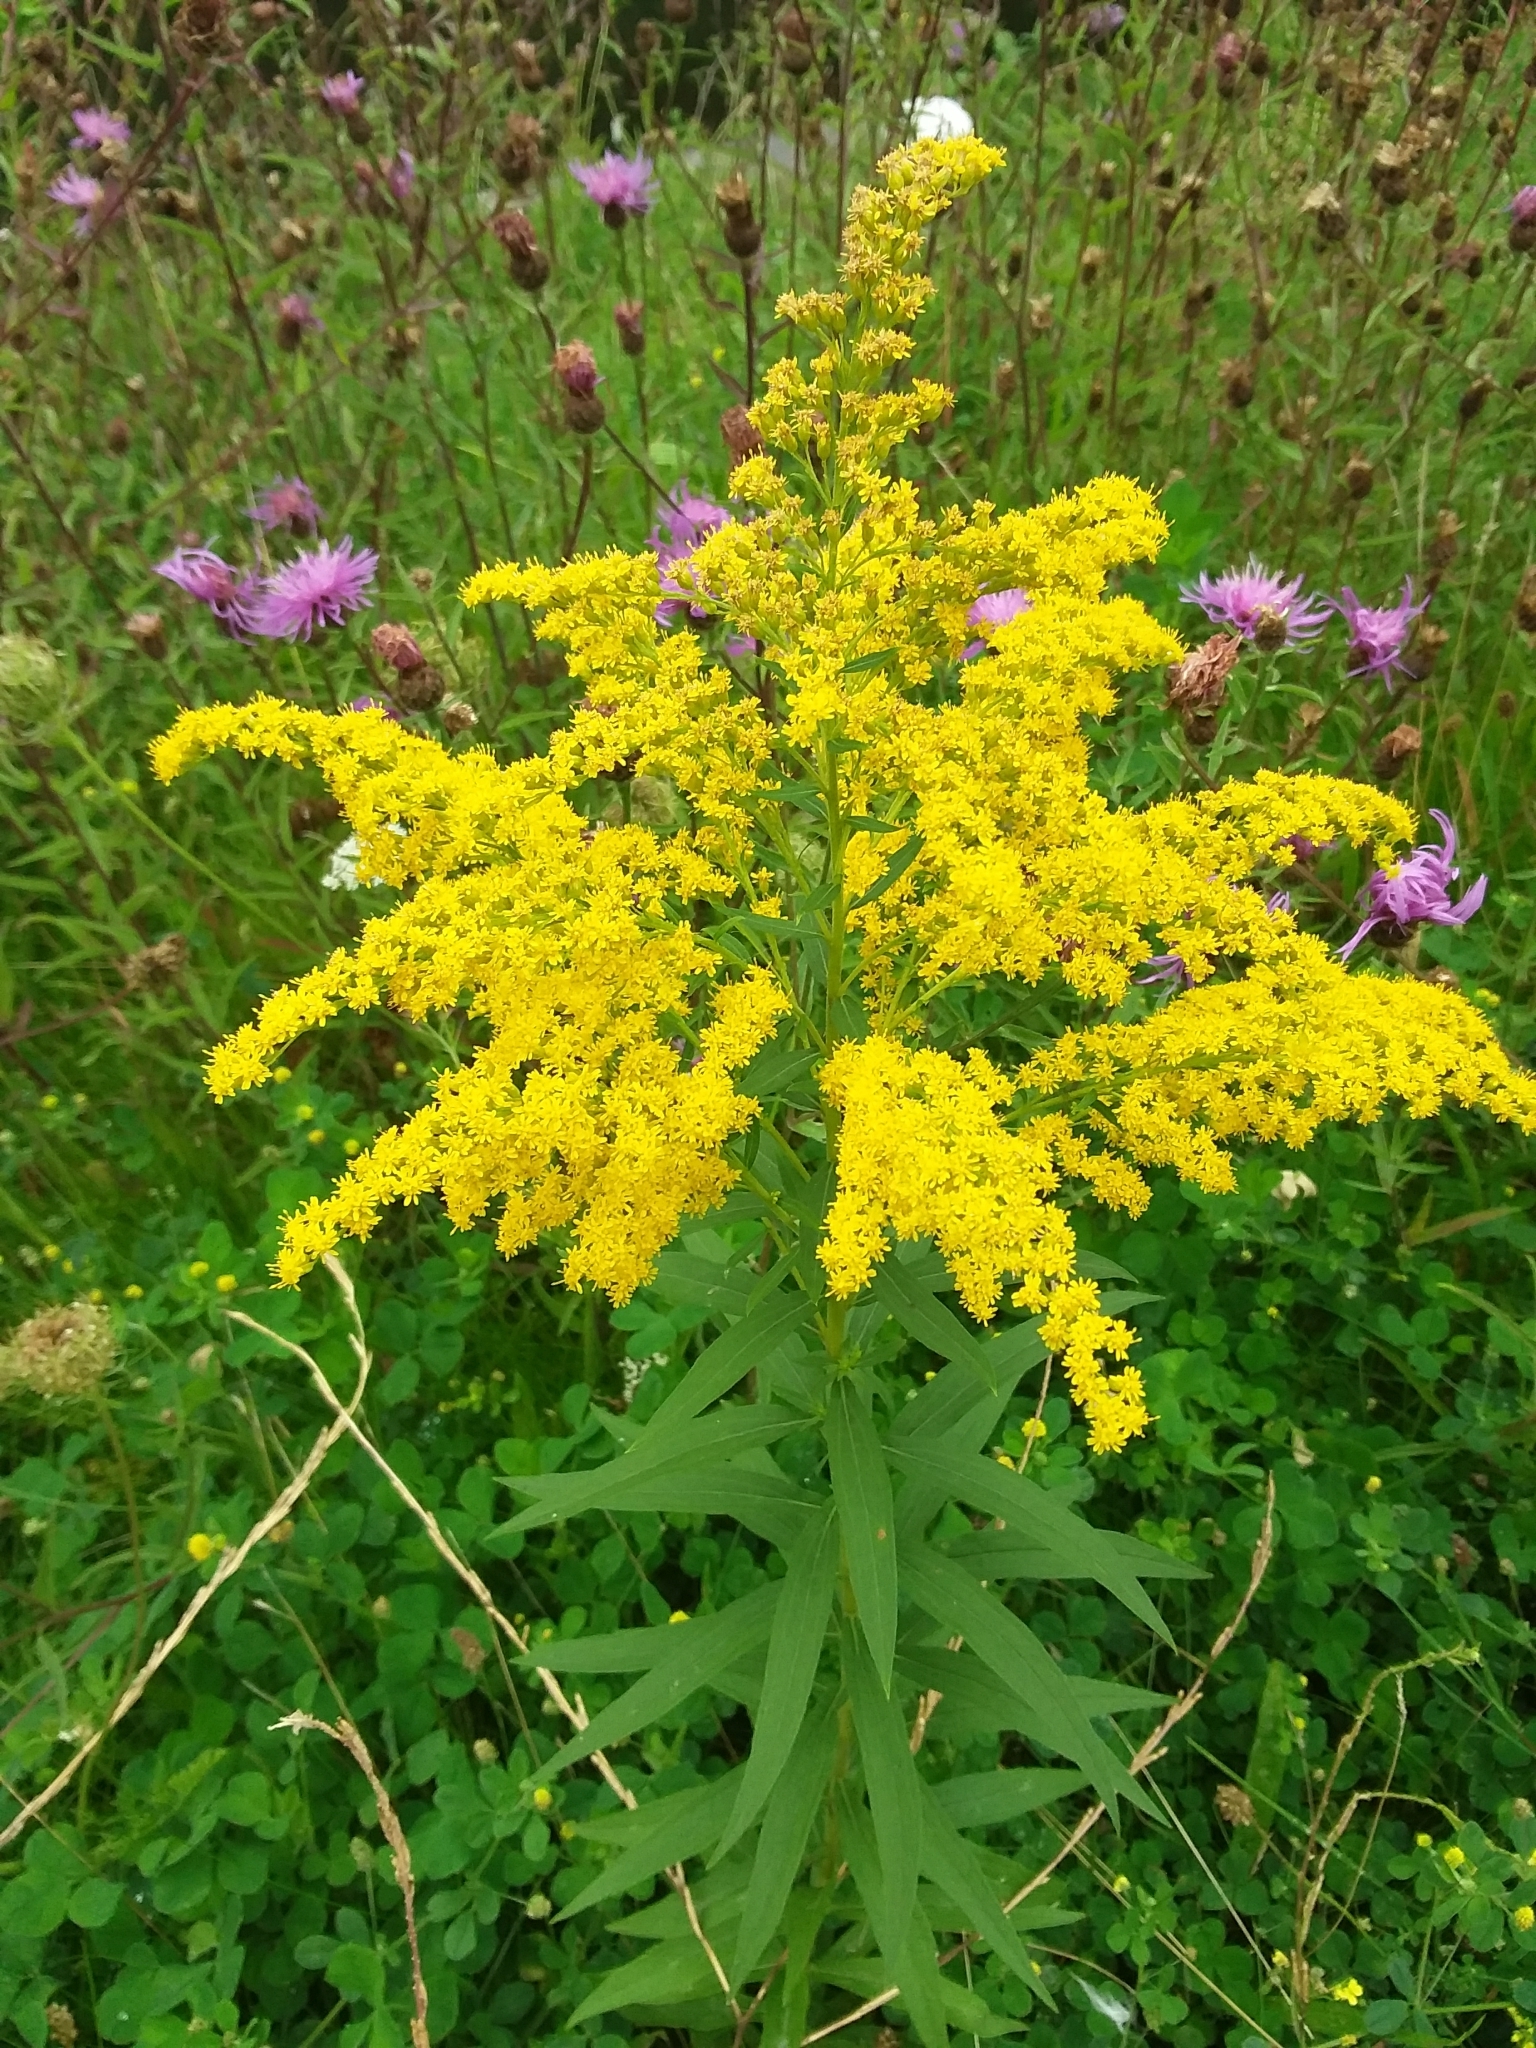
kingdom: Plantae
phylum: Tracheophyta
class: Magnoliopsida
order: Asterales
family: Asteraceae
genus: Solidago
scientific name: Solidago canadensis
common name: Canada goldenrod
